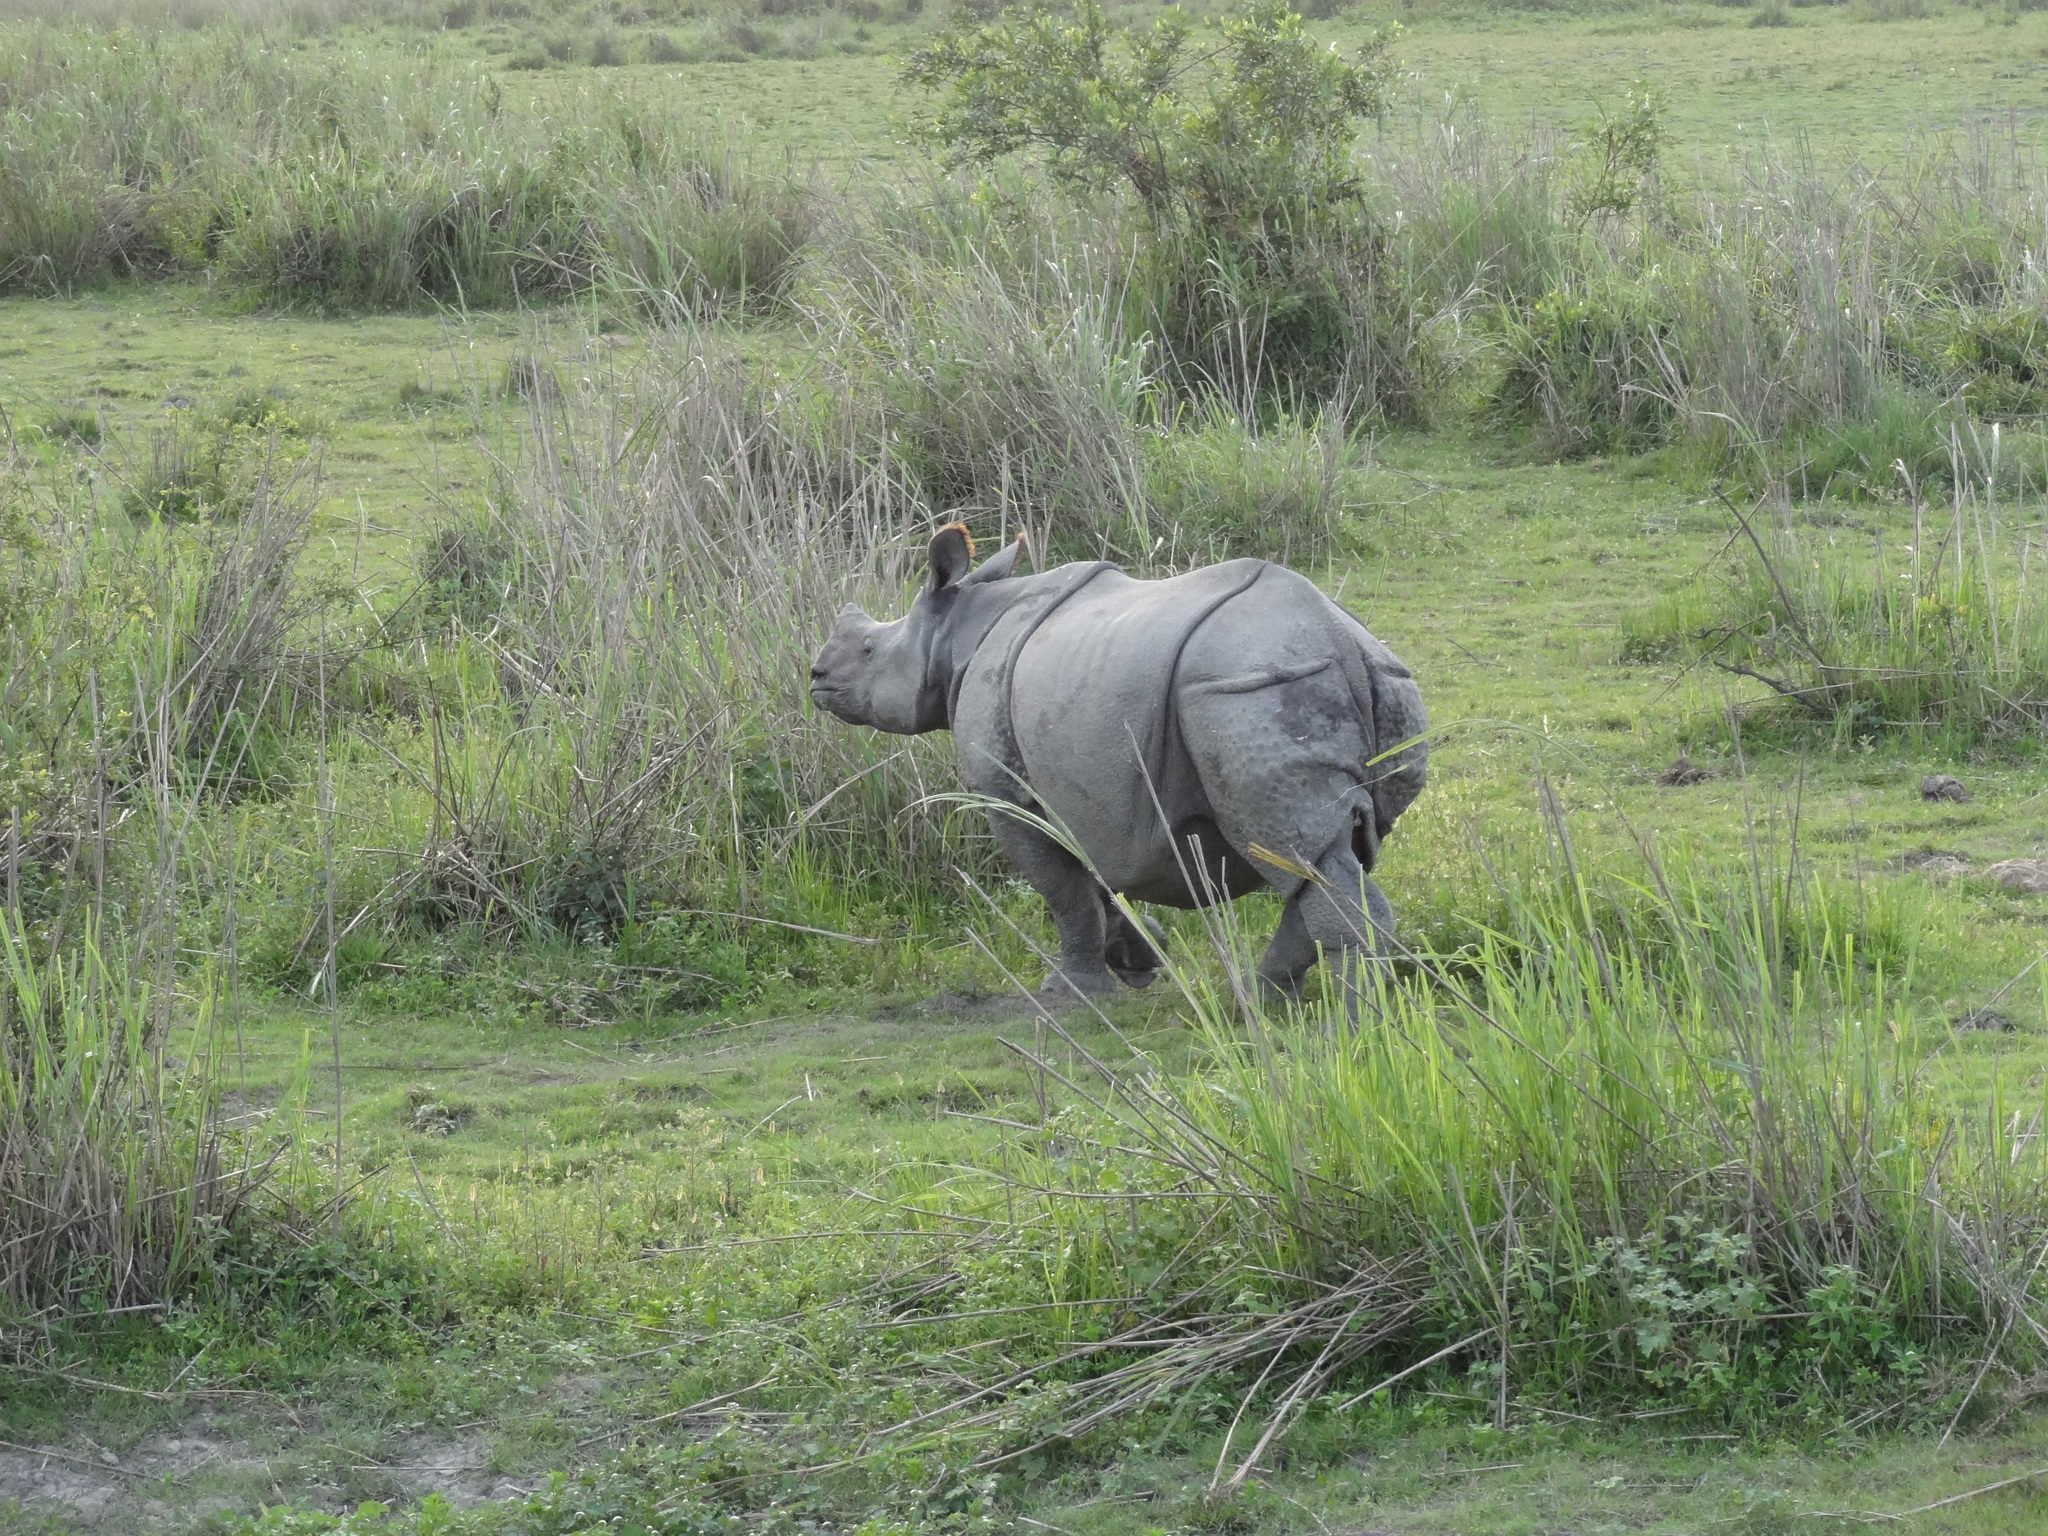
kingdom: Animalia
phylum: Chordata
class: Mammalia
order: Perissodactyla
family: Rhinocerotidae
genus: Rhinoceros
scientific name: Rhinoceros unicornis
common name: Indian rhinoceros
